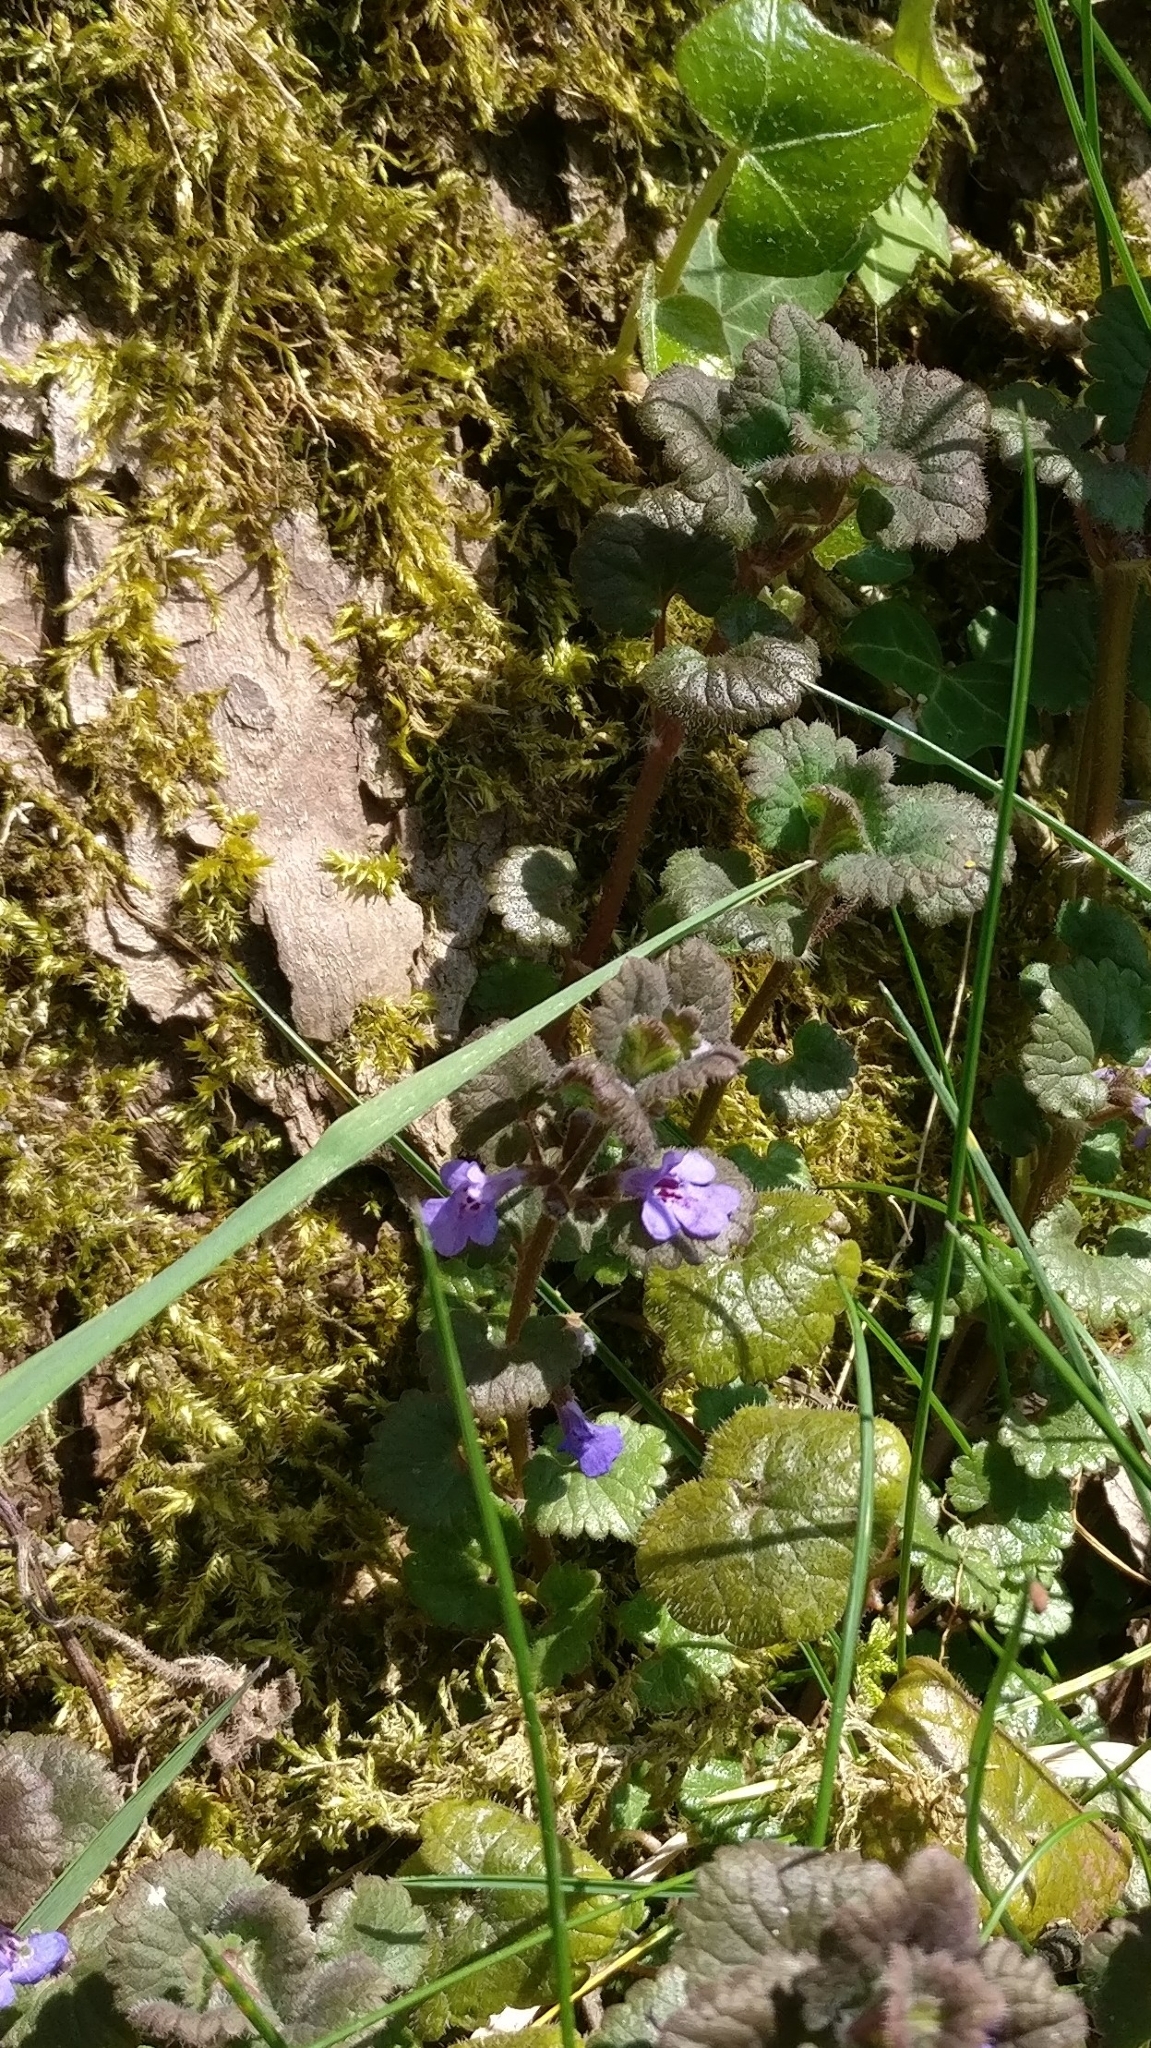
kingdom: Plantae
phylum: Tracheophyta
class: Magnoliopsida
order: Lamiales
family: Lamiaceae
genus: Glechoma
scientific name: Glechoma hederacea
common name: Ground ivy
